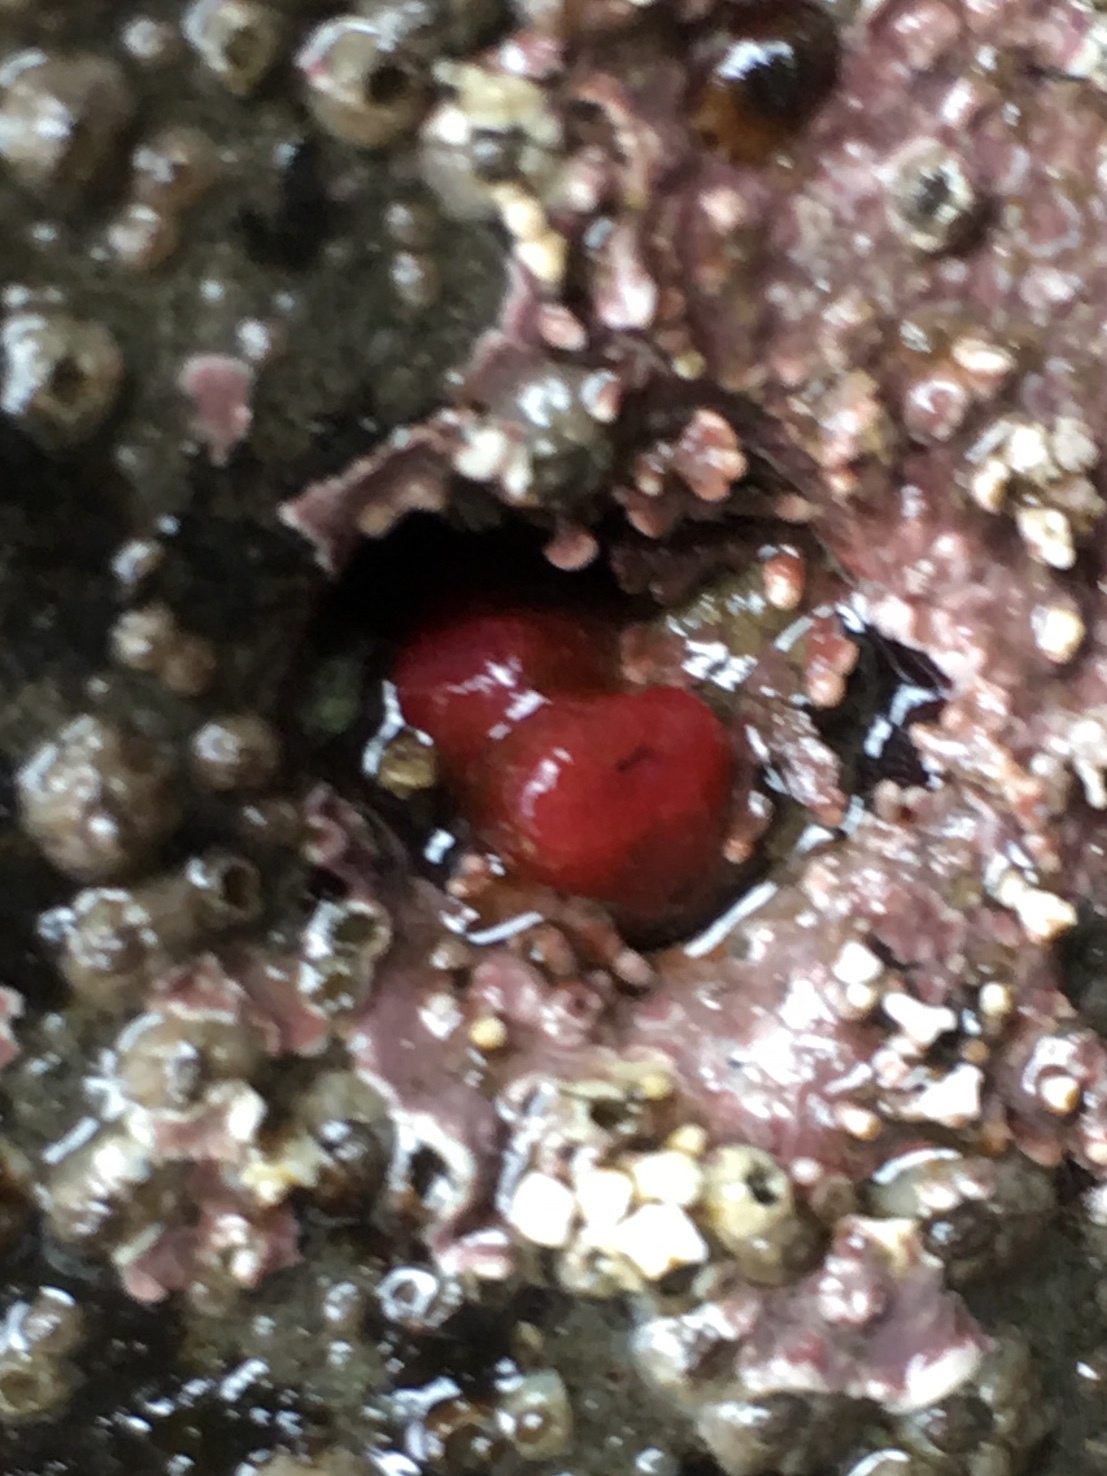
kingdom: Animalia
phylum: Mollusca
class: Bivalvia
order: Adapedonta
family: Hiatellidae
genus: Hiatella
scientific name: Hiatella arctica
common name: Arctic hiatella
